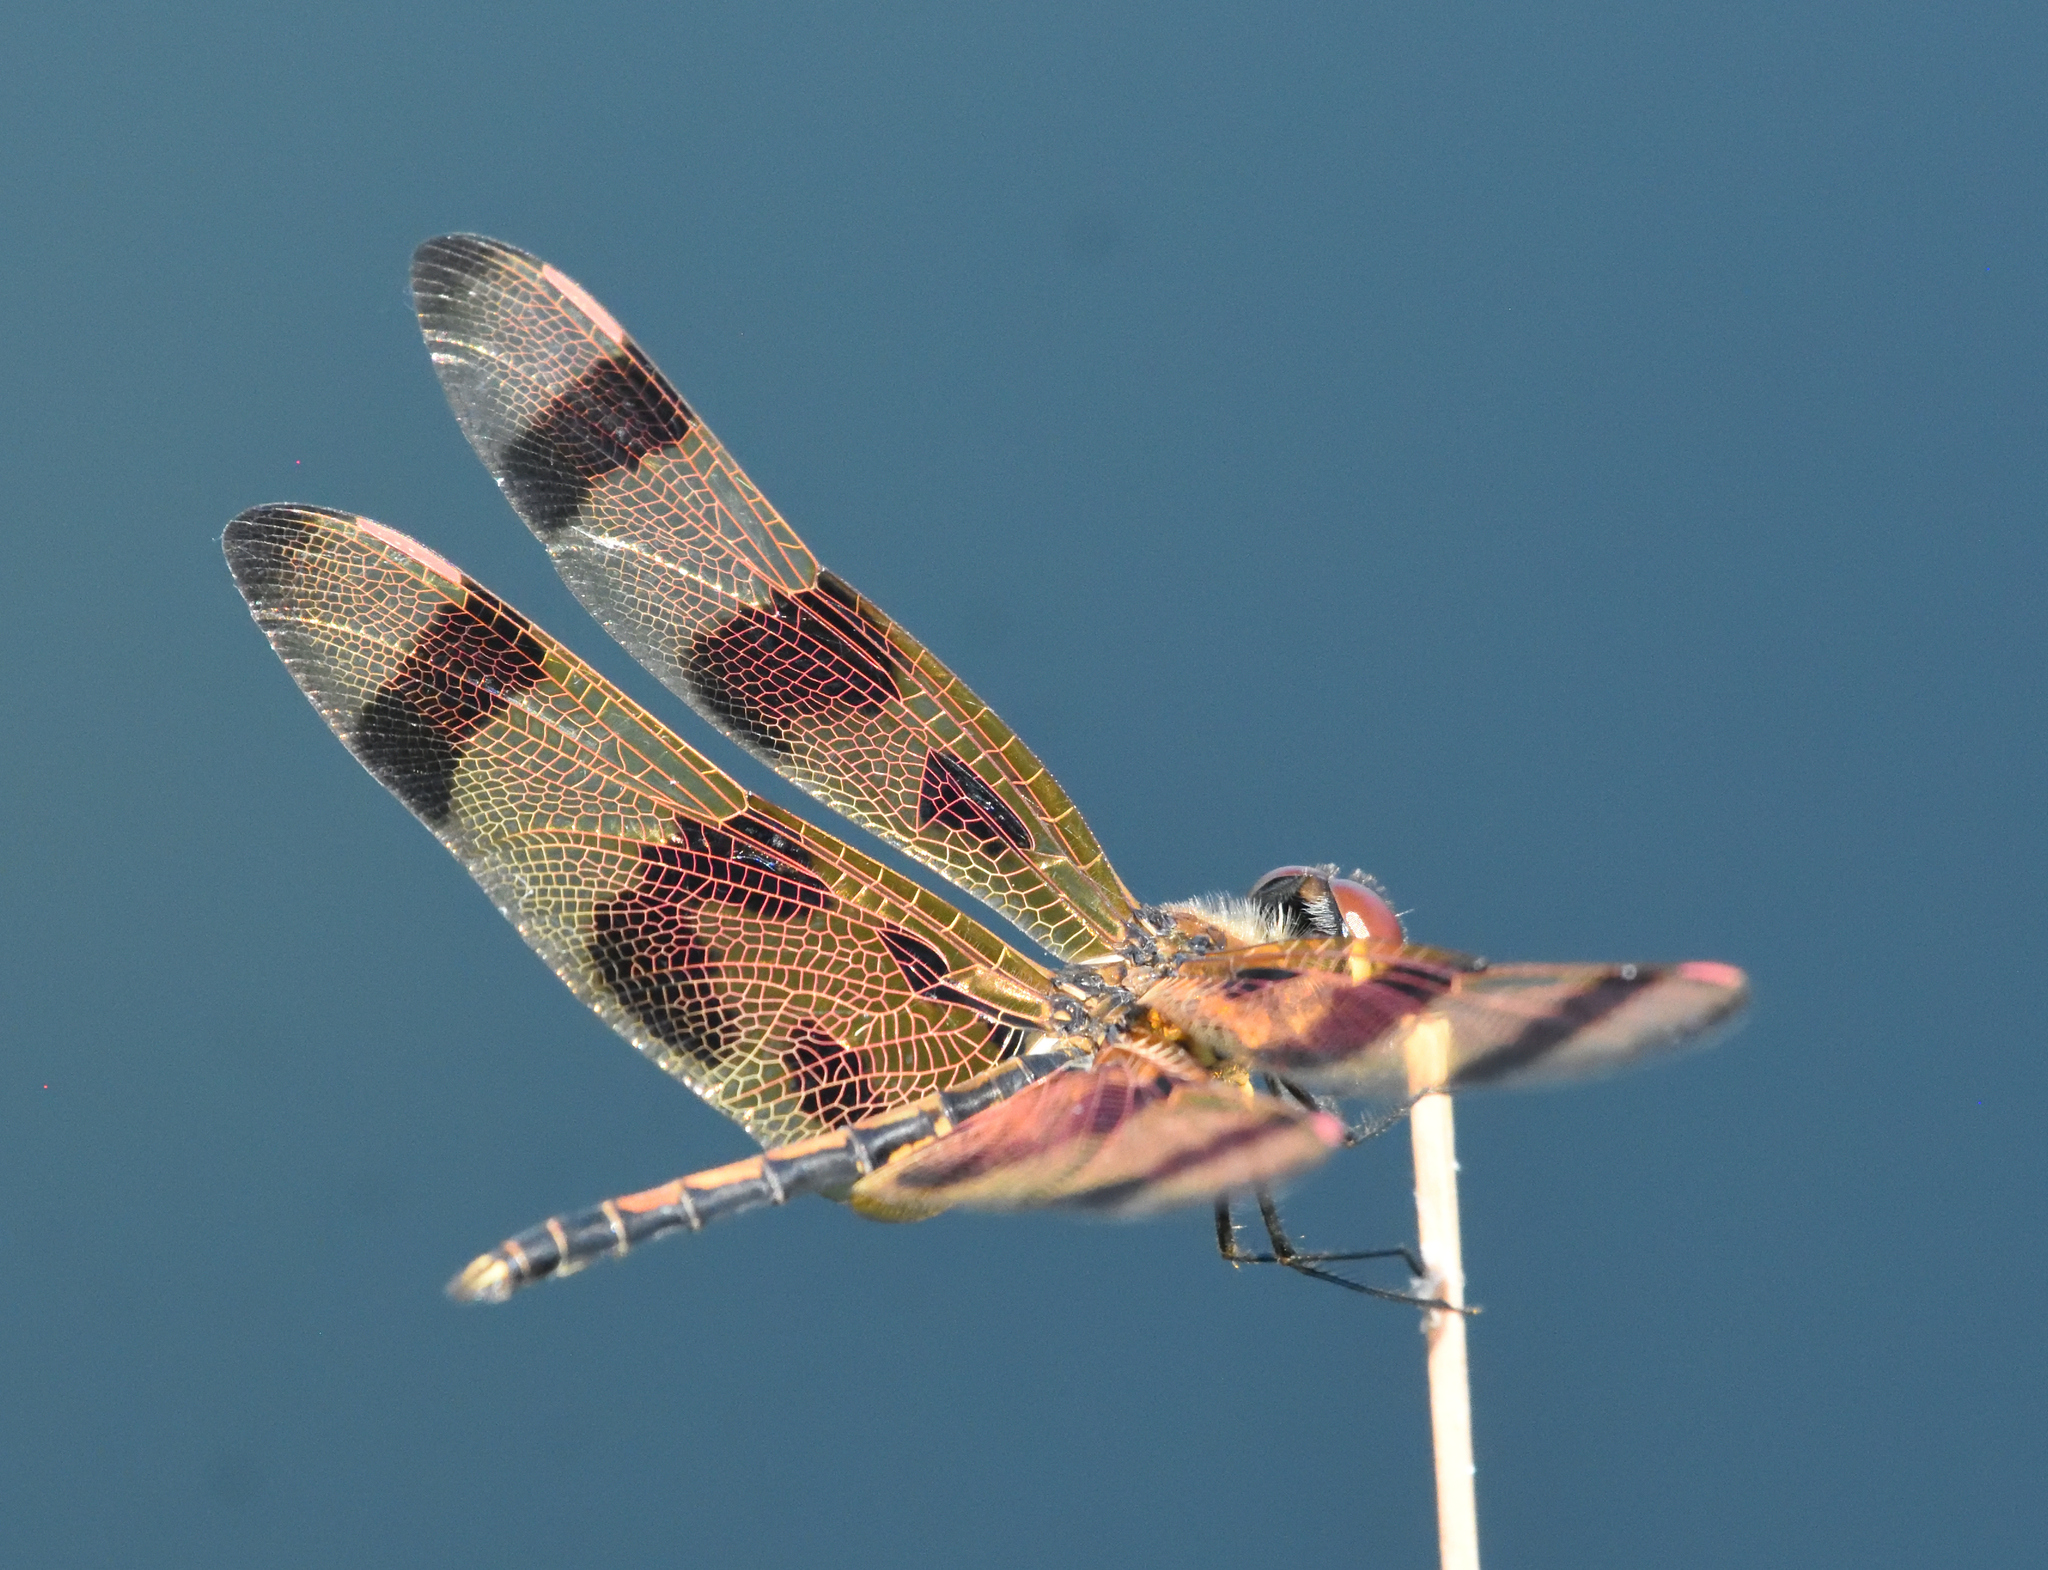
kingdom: Animalia
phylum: Arthropoda
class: Insecta
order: Odonata
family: Libellulidae
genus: Celithemis
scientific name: Celithemis eponina
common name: Halloween pennant
